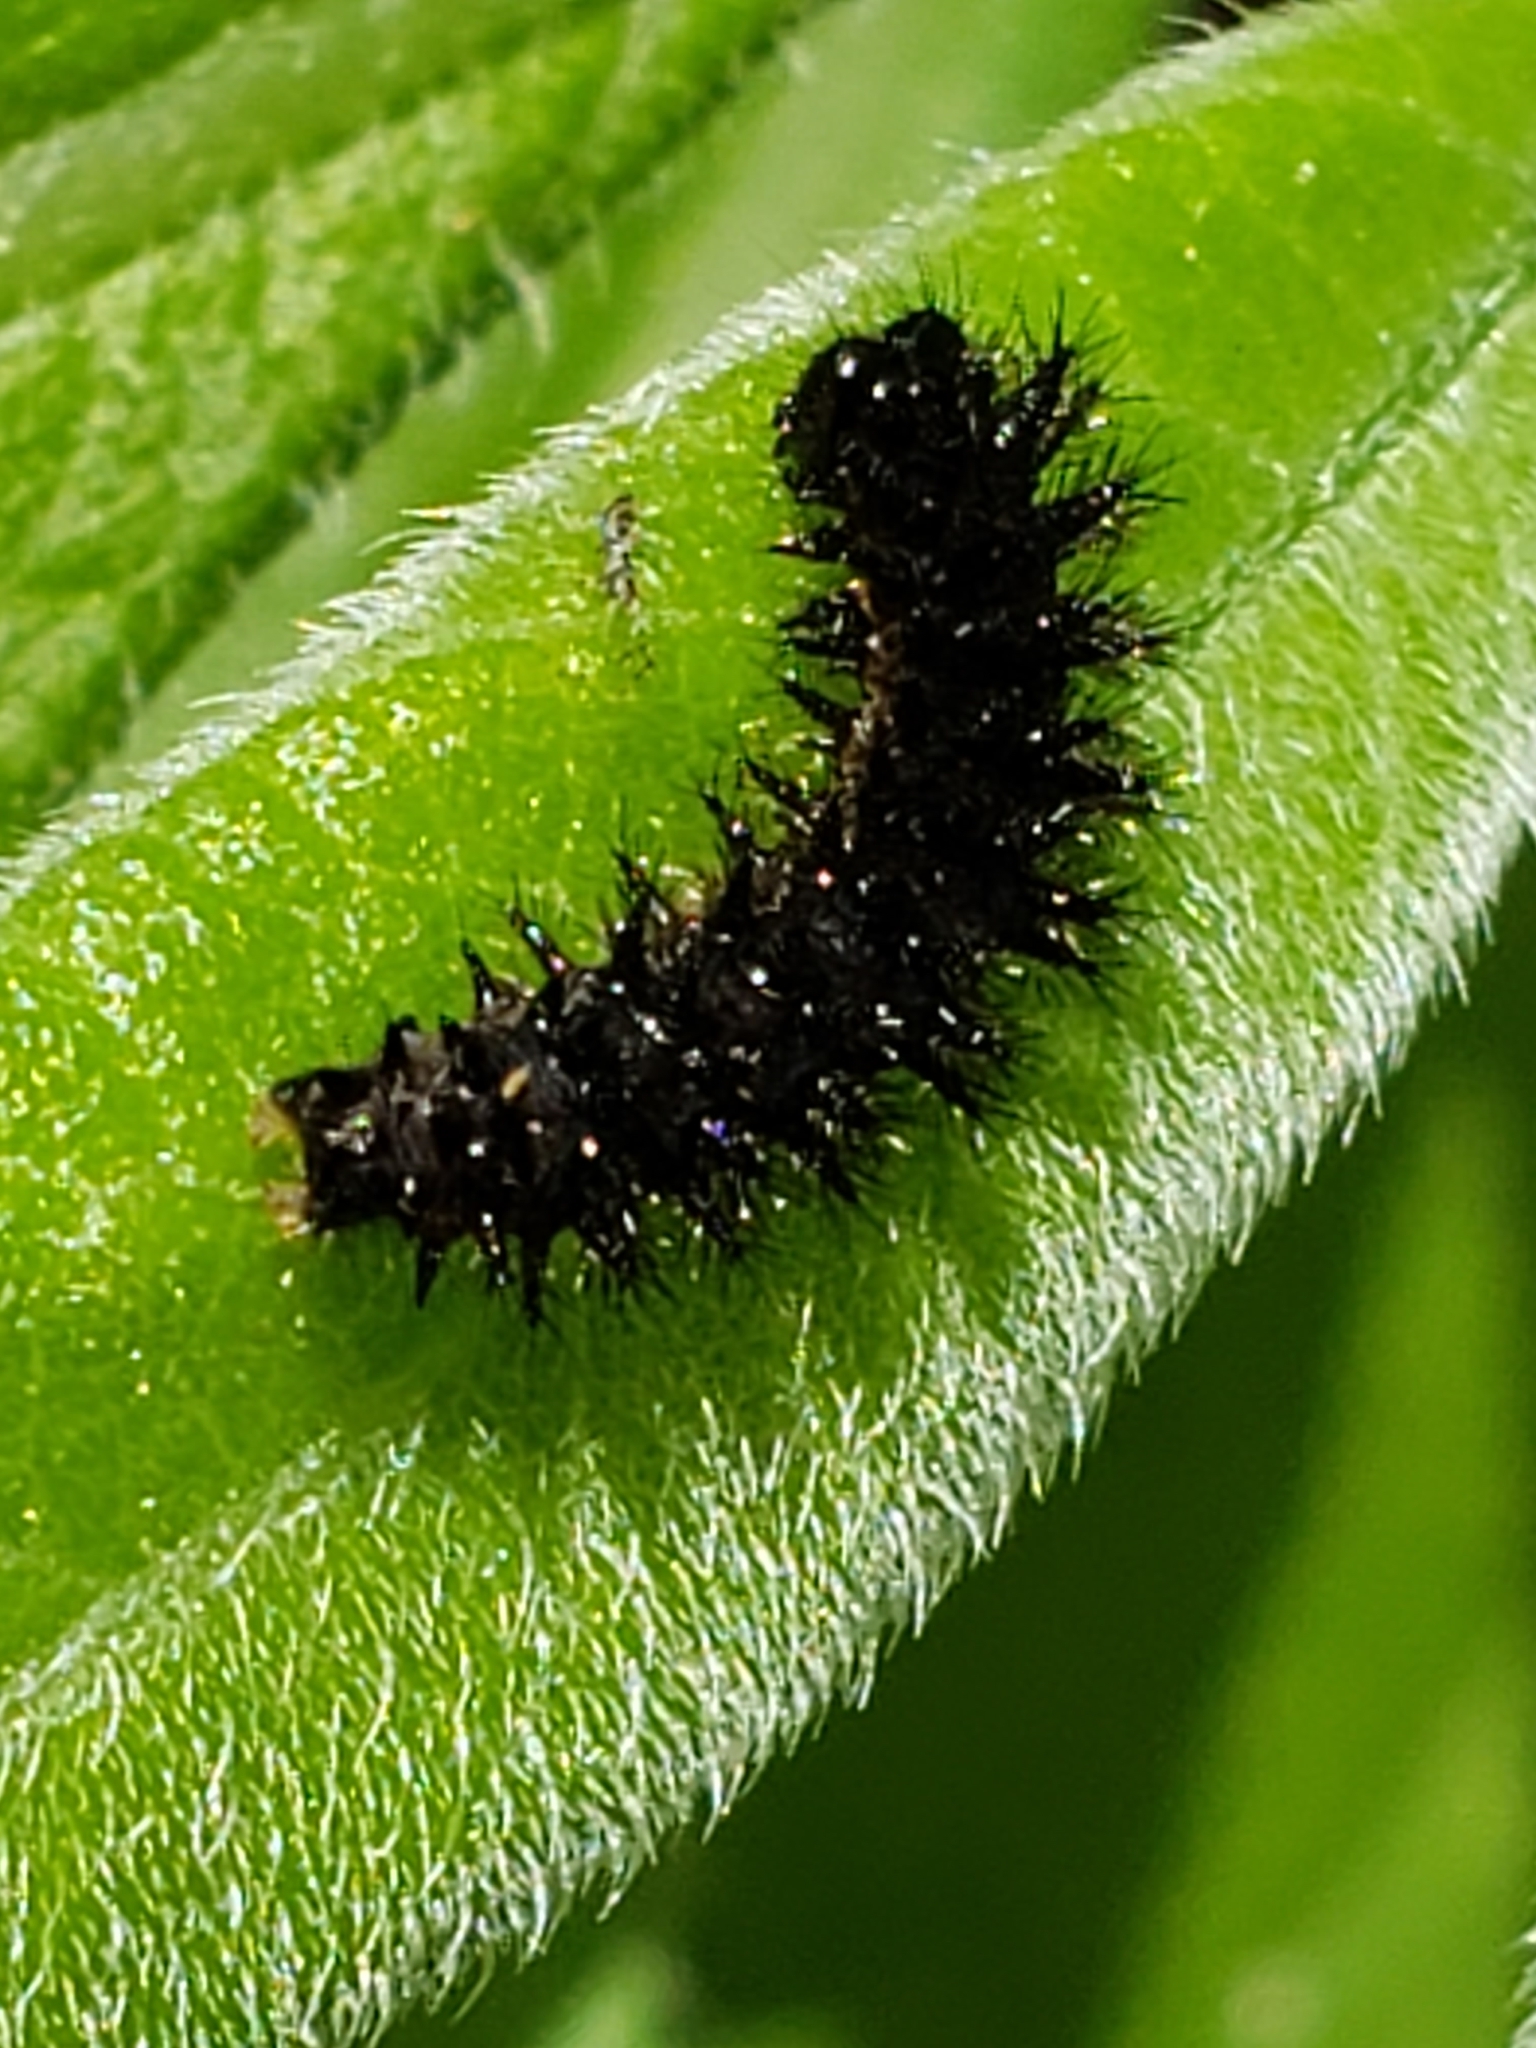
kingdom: Animalia
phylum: Arthropoda
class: Insecta
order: Lepidoptera
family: Nymphalidae
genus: Chlosyne
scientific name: Chlosyne nycteis
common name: Silvery checkerspot
